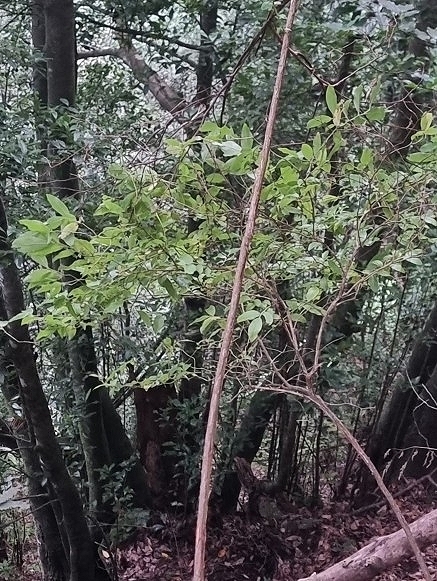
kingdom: Plantae
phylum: Tracheophyta
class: Magnoliopsida
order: Ericales
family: Ericaceae
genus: Vaccinium
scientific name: Vaccinium padifolium
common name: Madeiran blueberry
